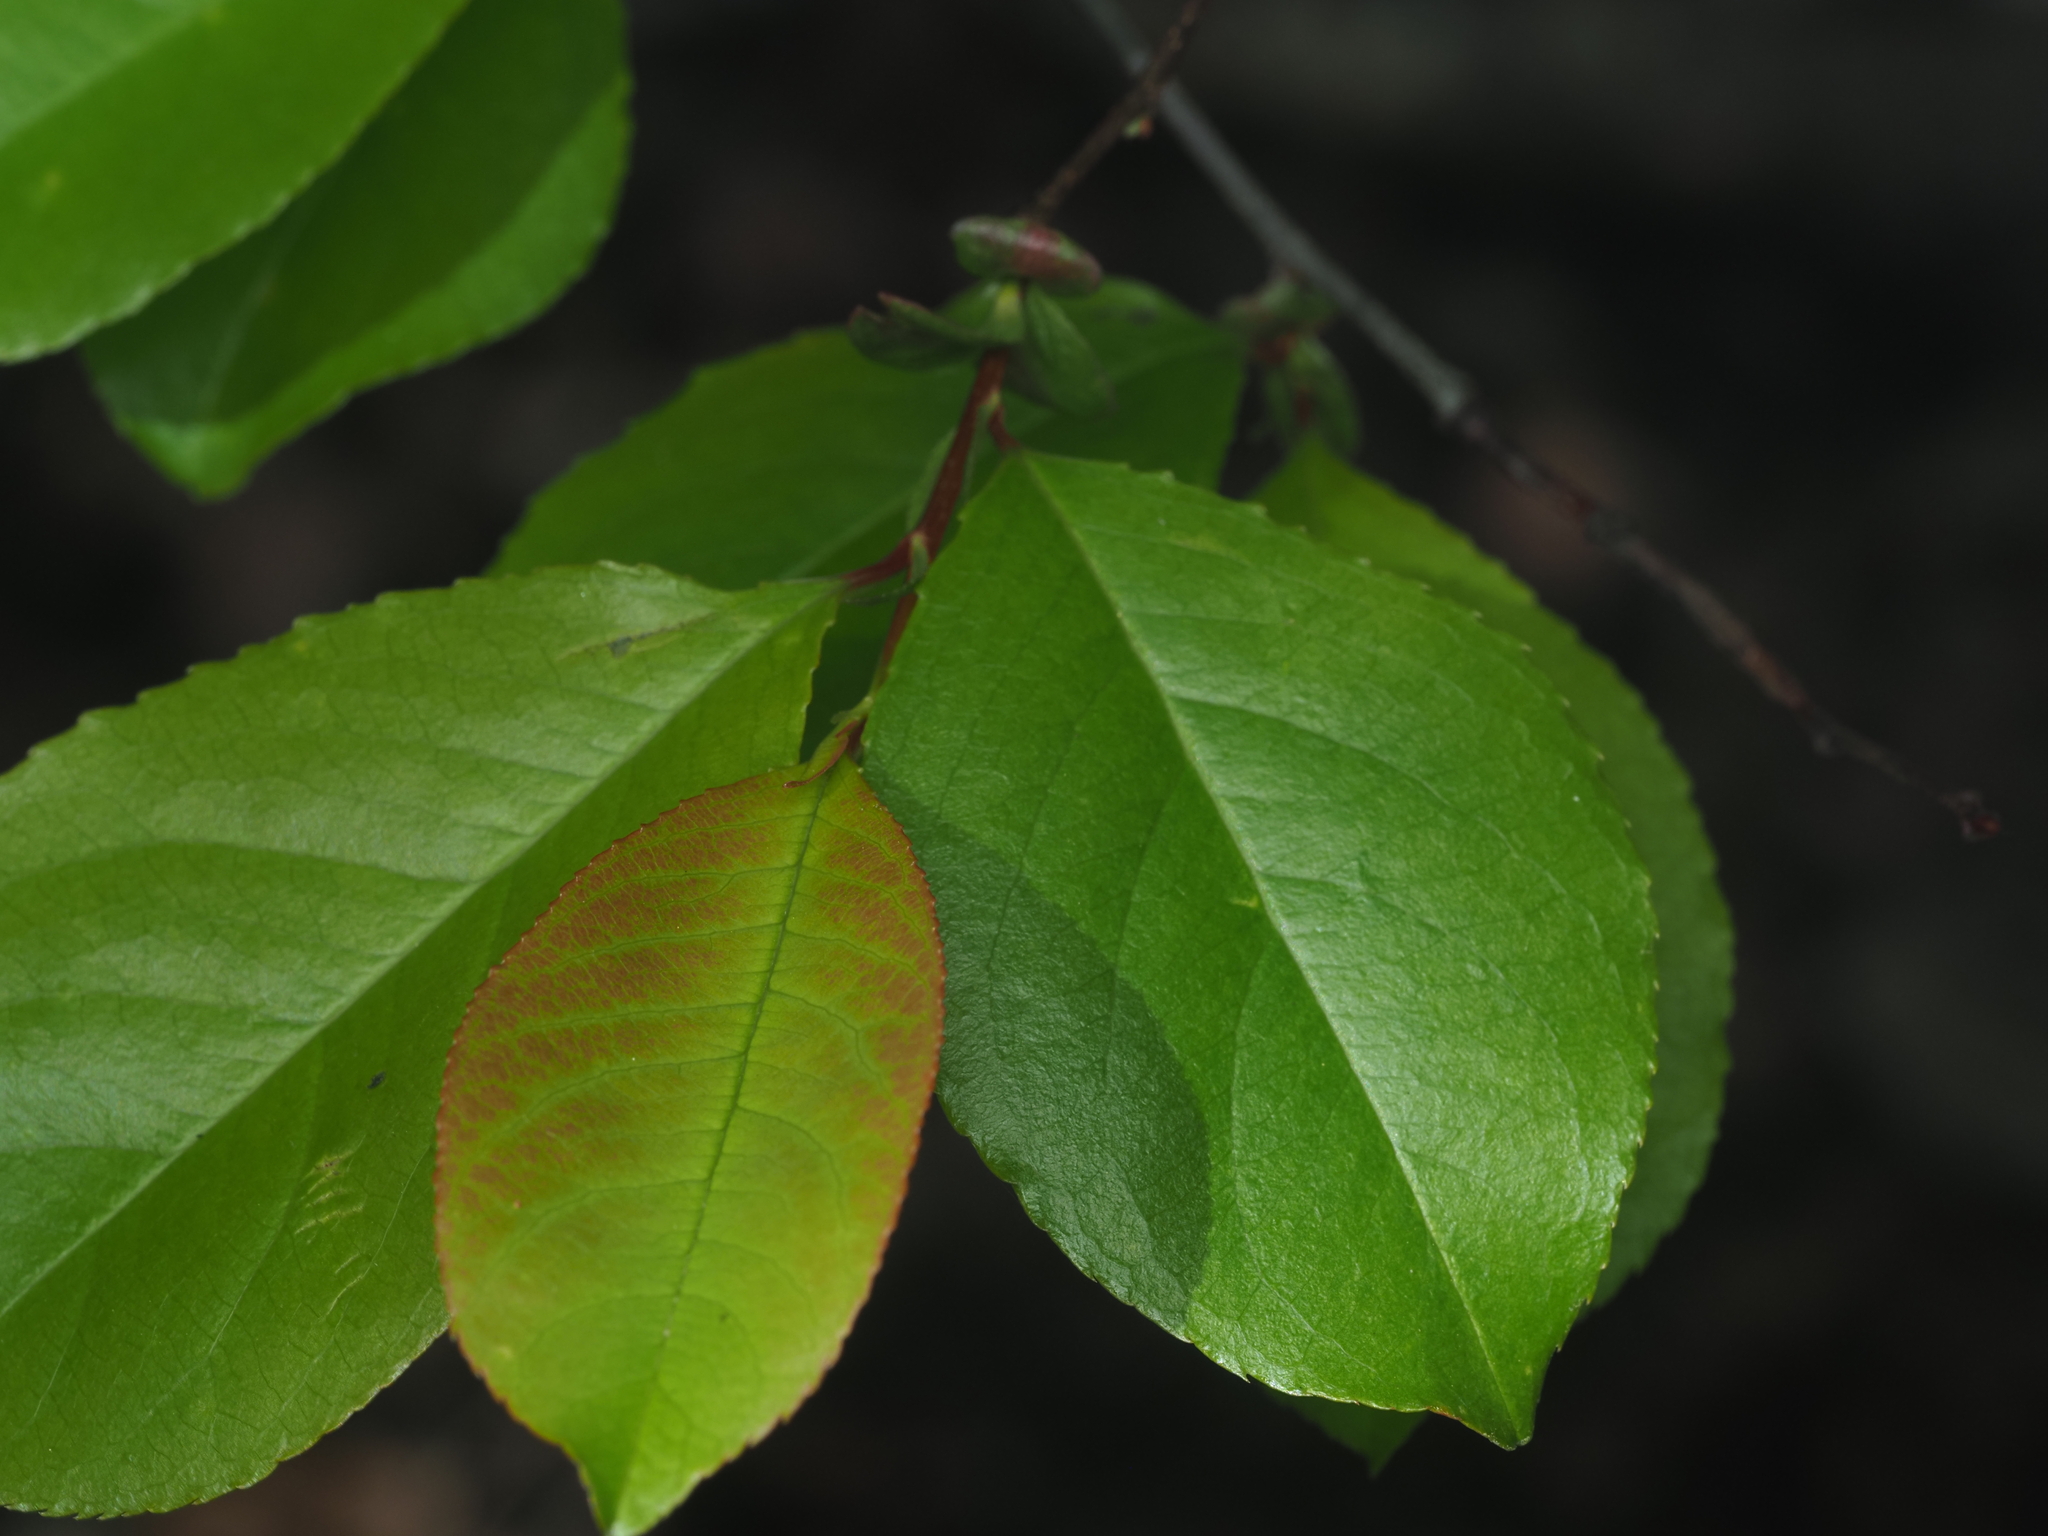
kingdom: Plantae
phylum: Tracheophyta
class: Magnoliopsida
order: Rosales
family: Rosaceae
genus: Prunus
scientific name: Prunus serotina
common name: Black cherry
